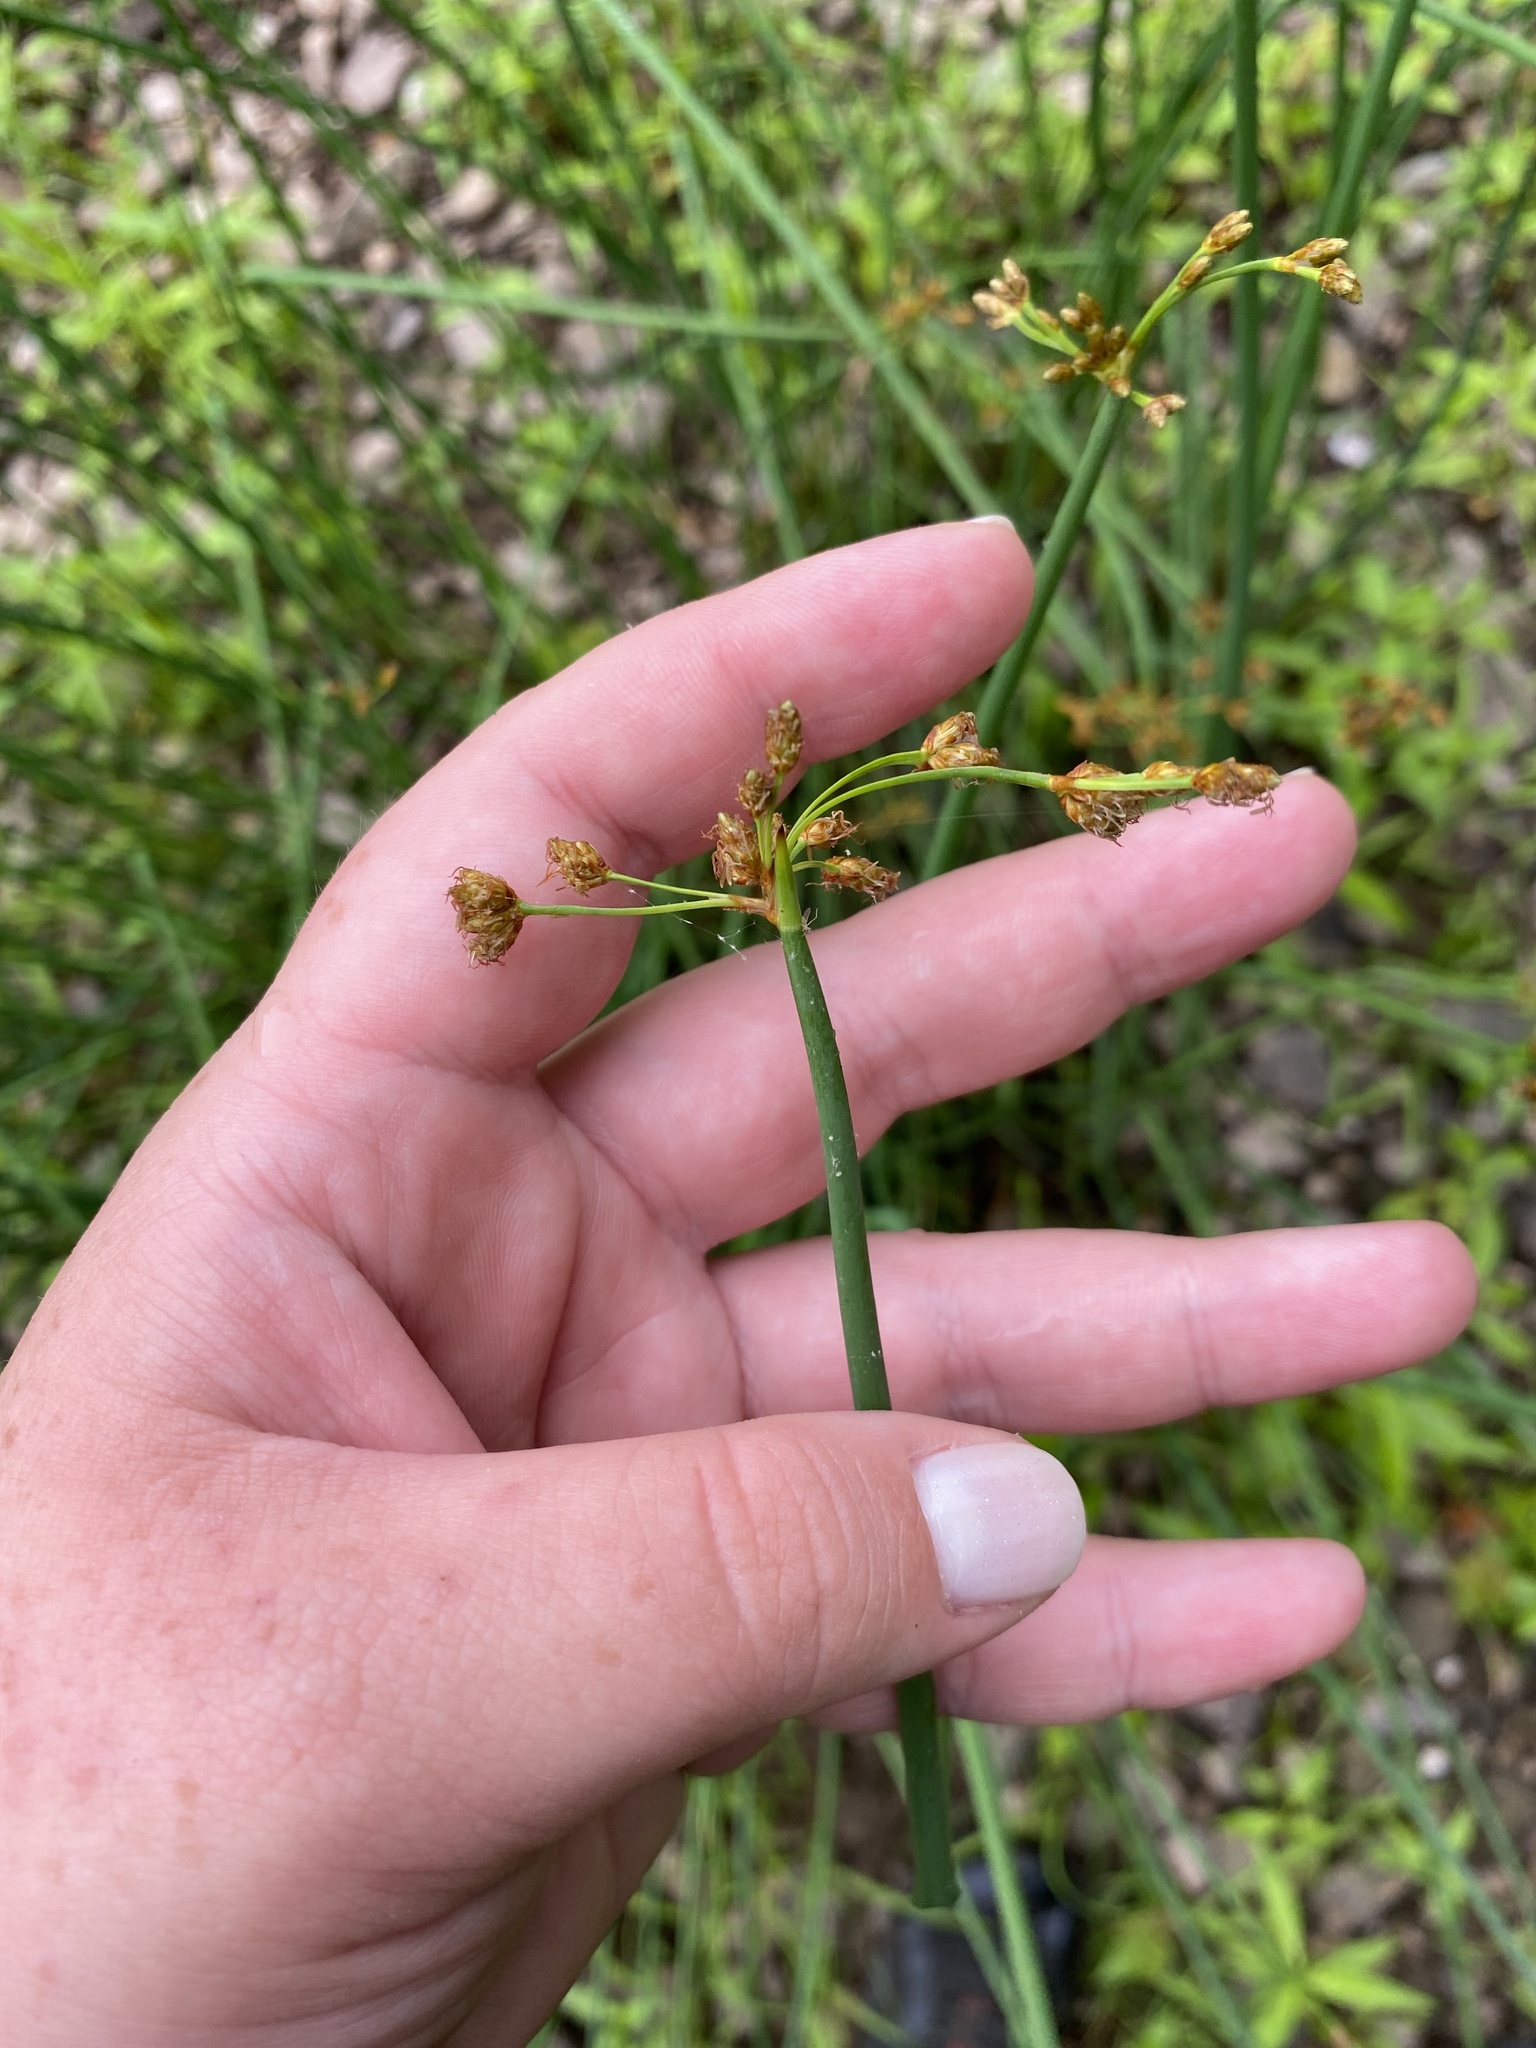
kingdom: Plantae
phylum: Tracheophyta
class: Liliopsida
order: Poales
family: Cyperaceae
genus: Schoenoplectus
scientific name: Schoenoplectus tabernaemontani
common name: Grey club-rush
